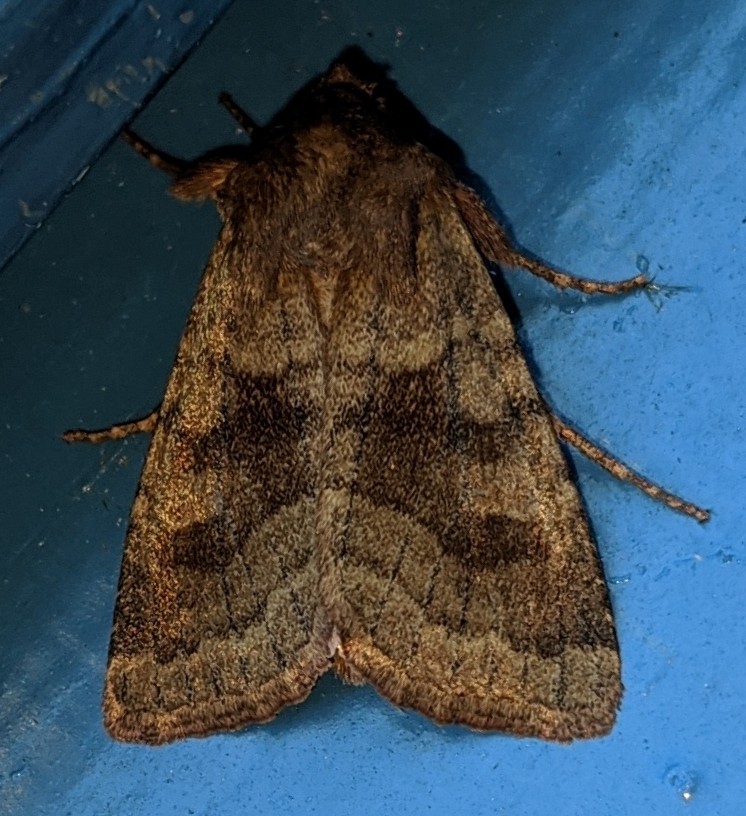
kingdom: Animalia
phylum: Arthropoda
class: Insecta
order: Lepidoptera
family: Noctuidae
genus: Nephelodes
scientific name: Nephelodes minians
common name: Bronzed cutworm
